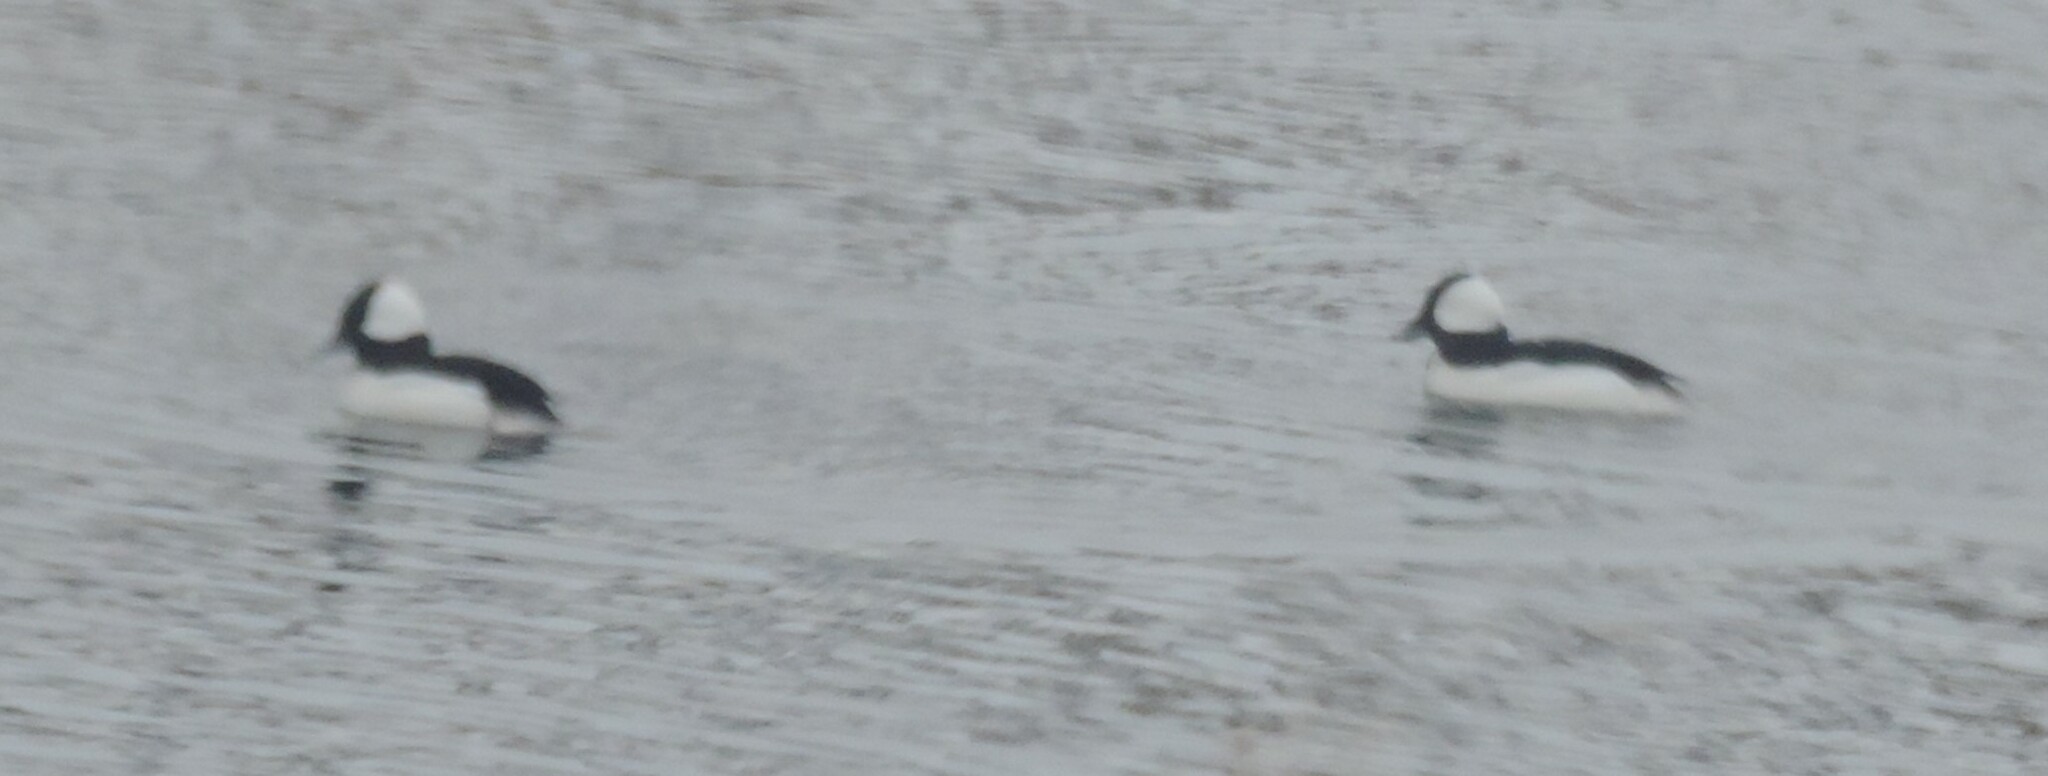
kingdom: Animalia
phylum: Chordata
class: Aves
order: Anseriformes
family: Anatidae
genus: Bucephala
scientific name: Bucephala albeola
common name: Bufflehead
